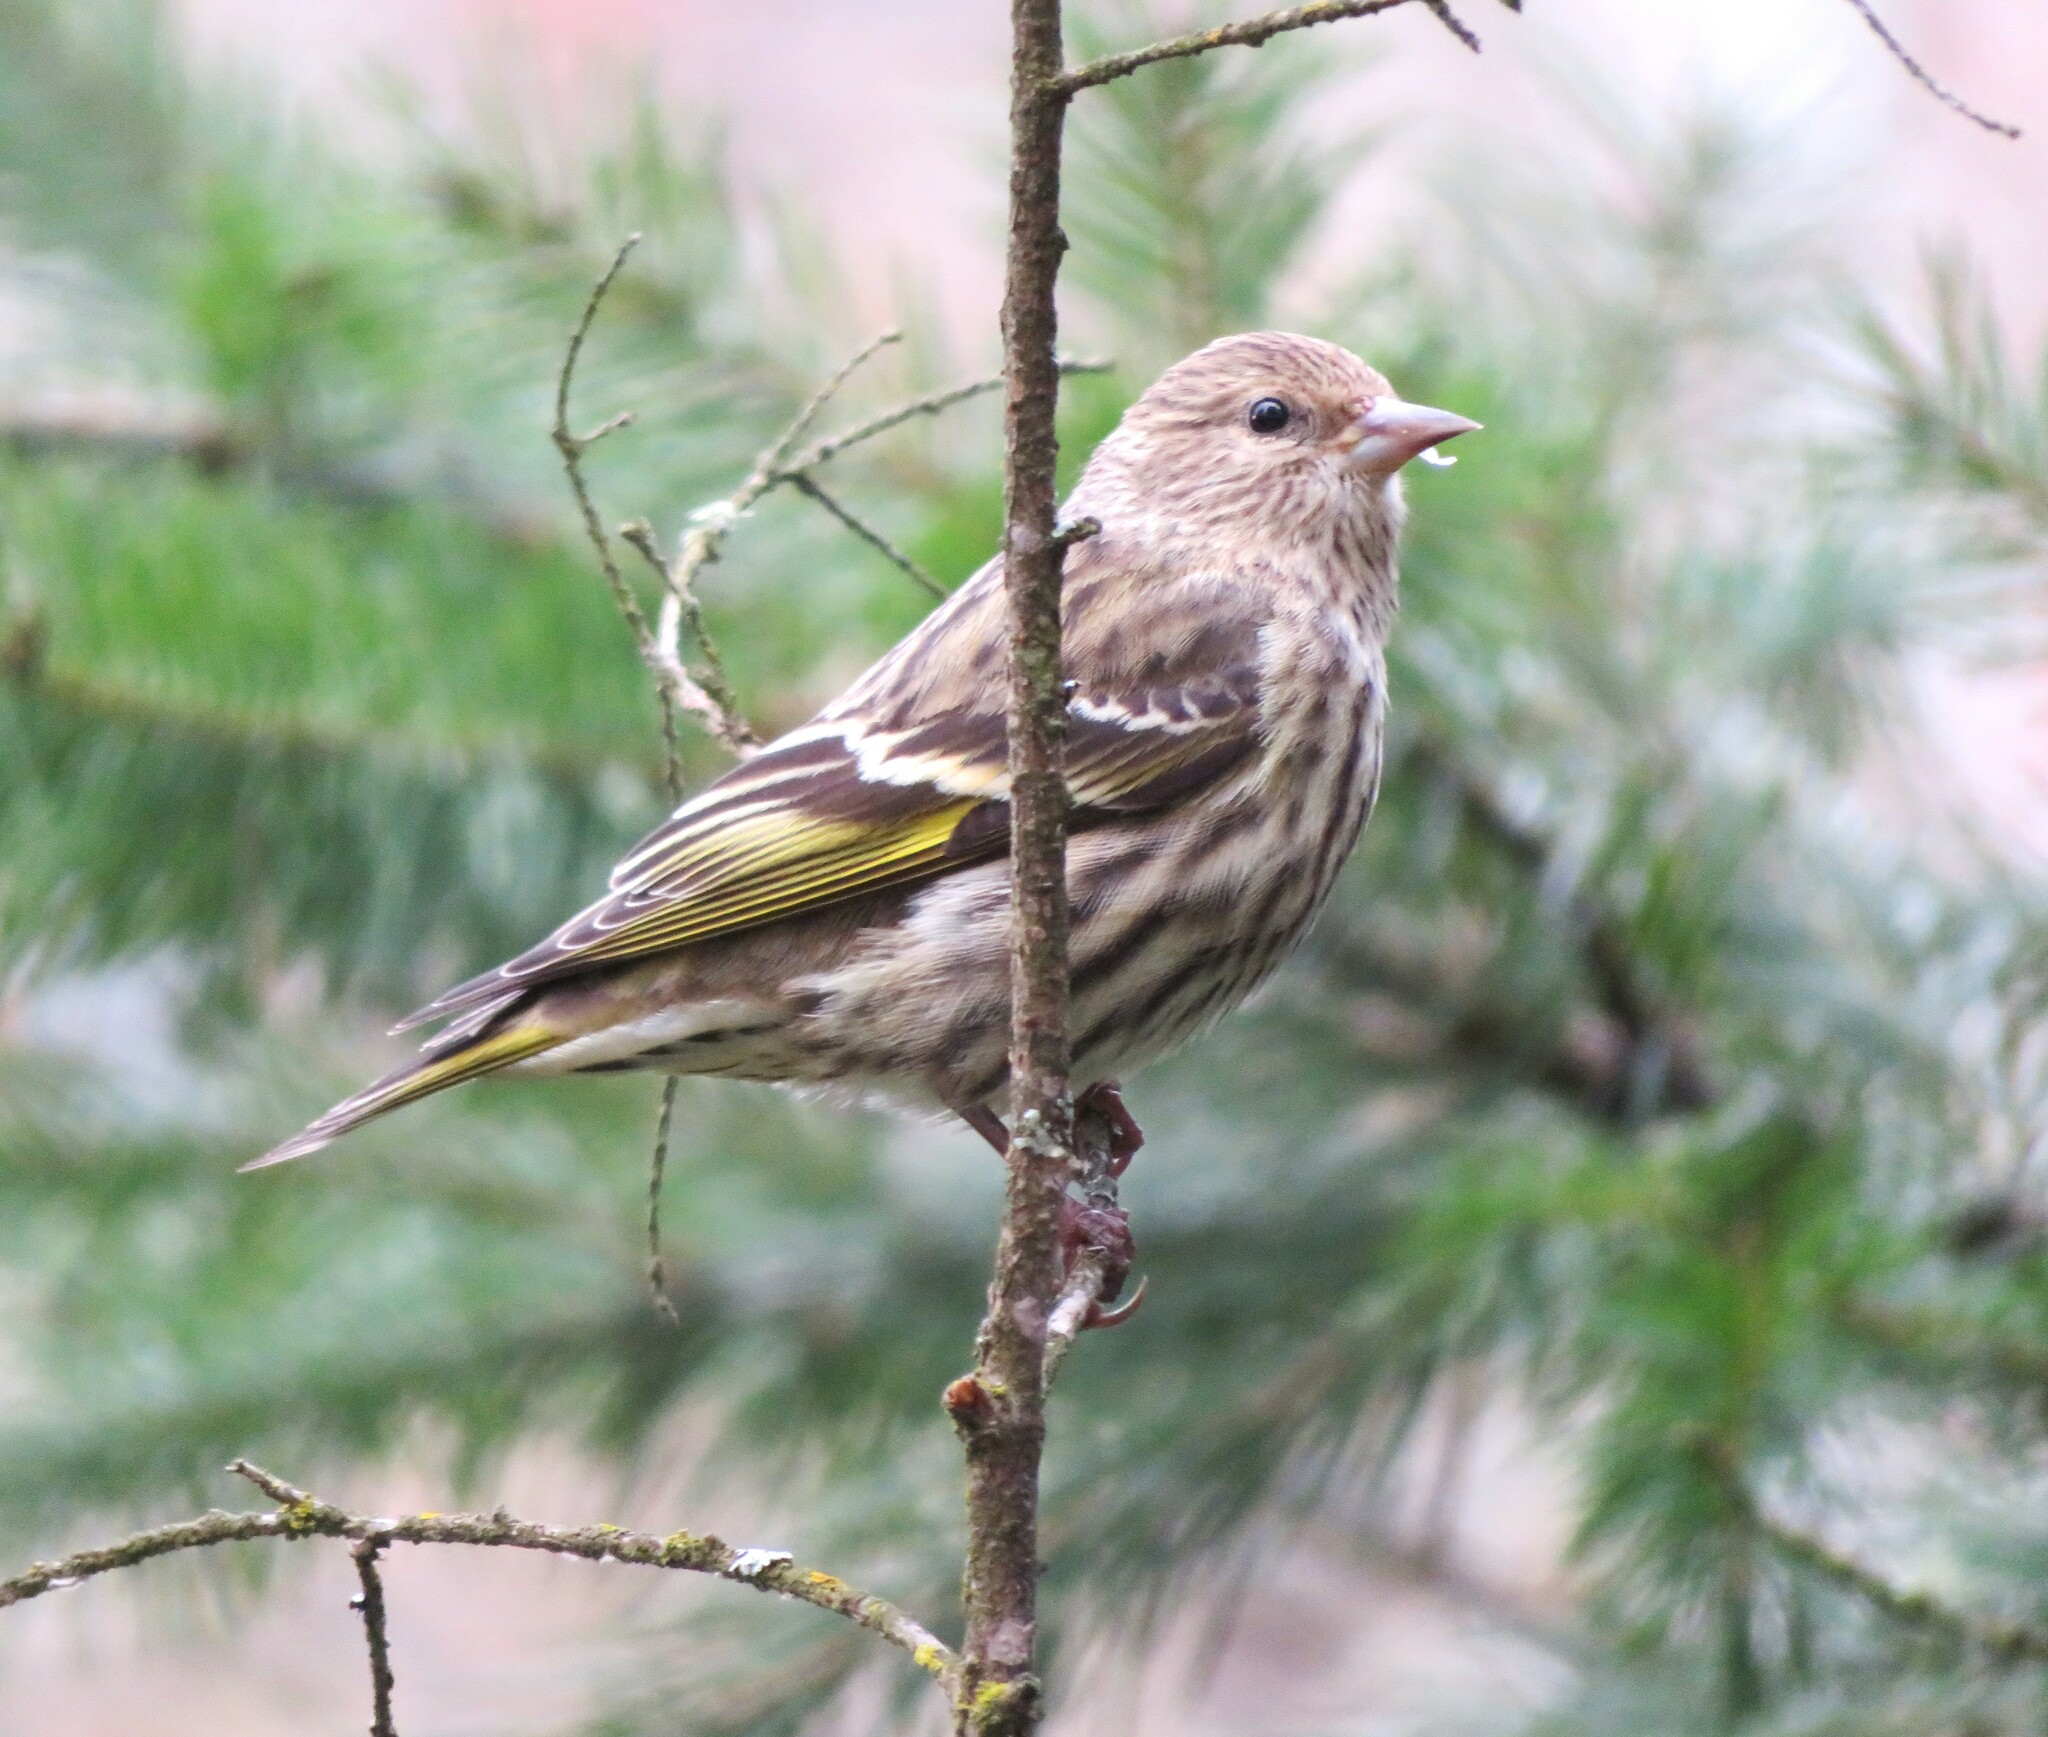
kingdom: Animalia
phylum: Chordata
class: Aves
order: Passeriformes
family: Fringillidae
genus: Spinus
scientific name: Spinus pinus
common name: Pine siskin
